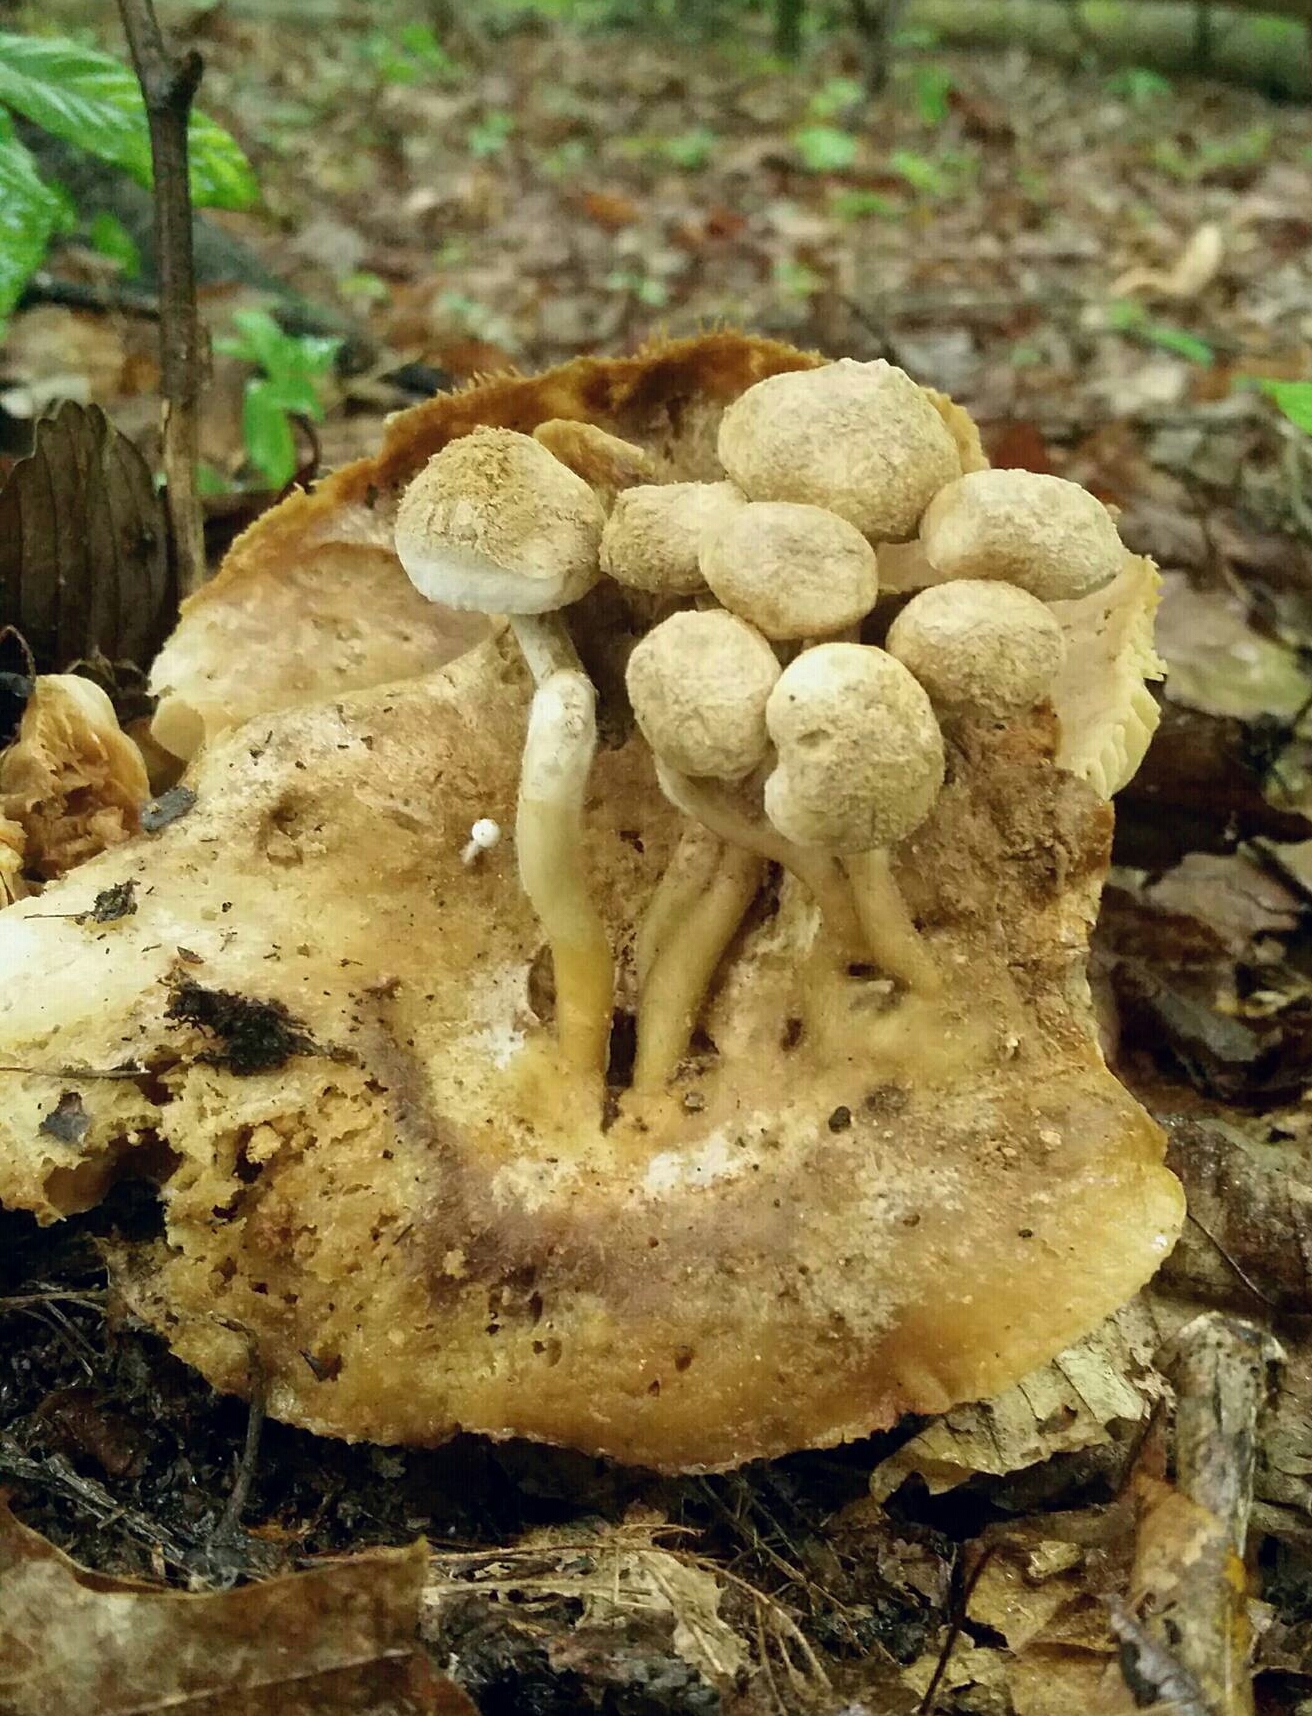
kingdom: Fungi
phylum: Basidiomycota
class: Agaricomycetes
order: Agaricales
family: Lyophyllaceae
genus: Asterophora
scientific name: Asterophora lycoperdoides
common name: Pick-a-back toadstool
